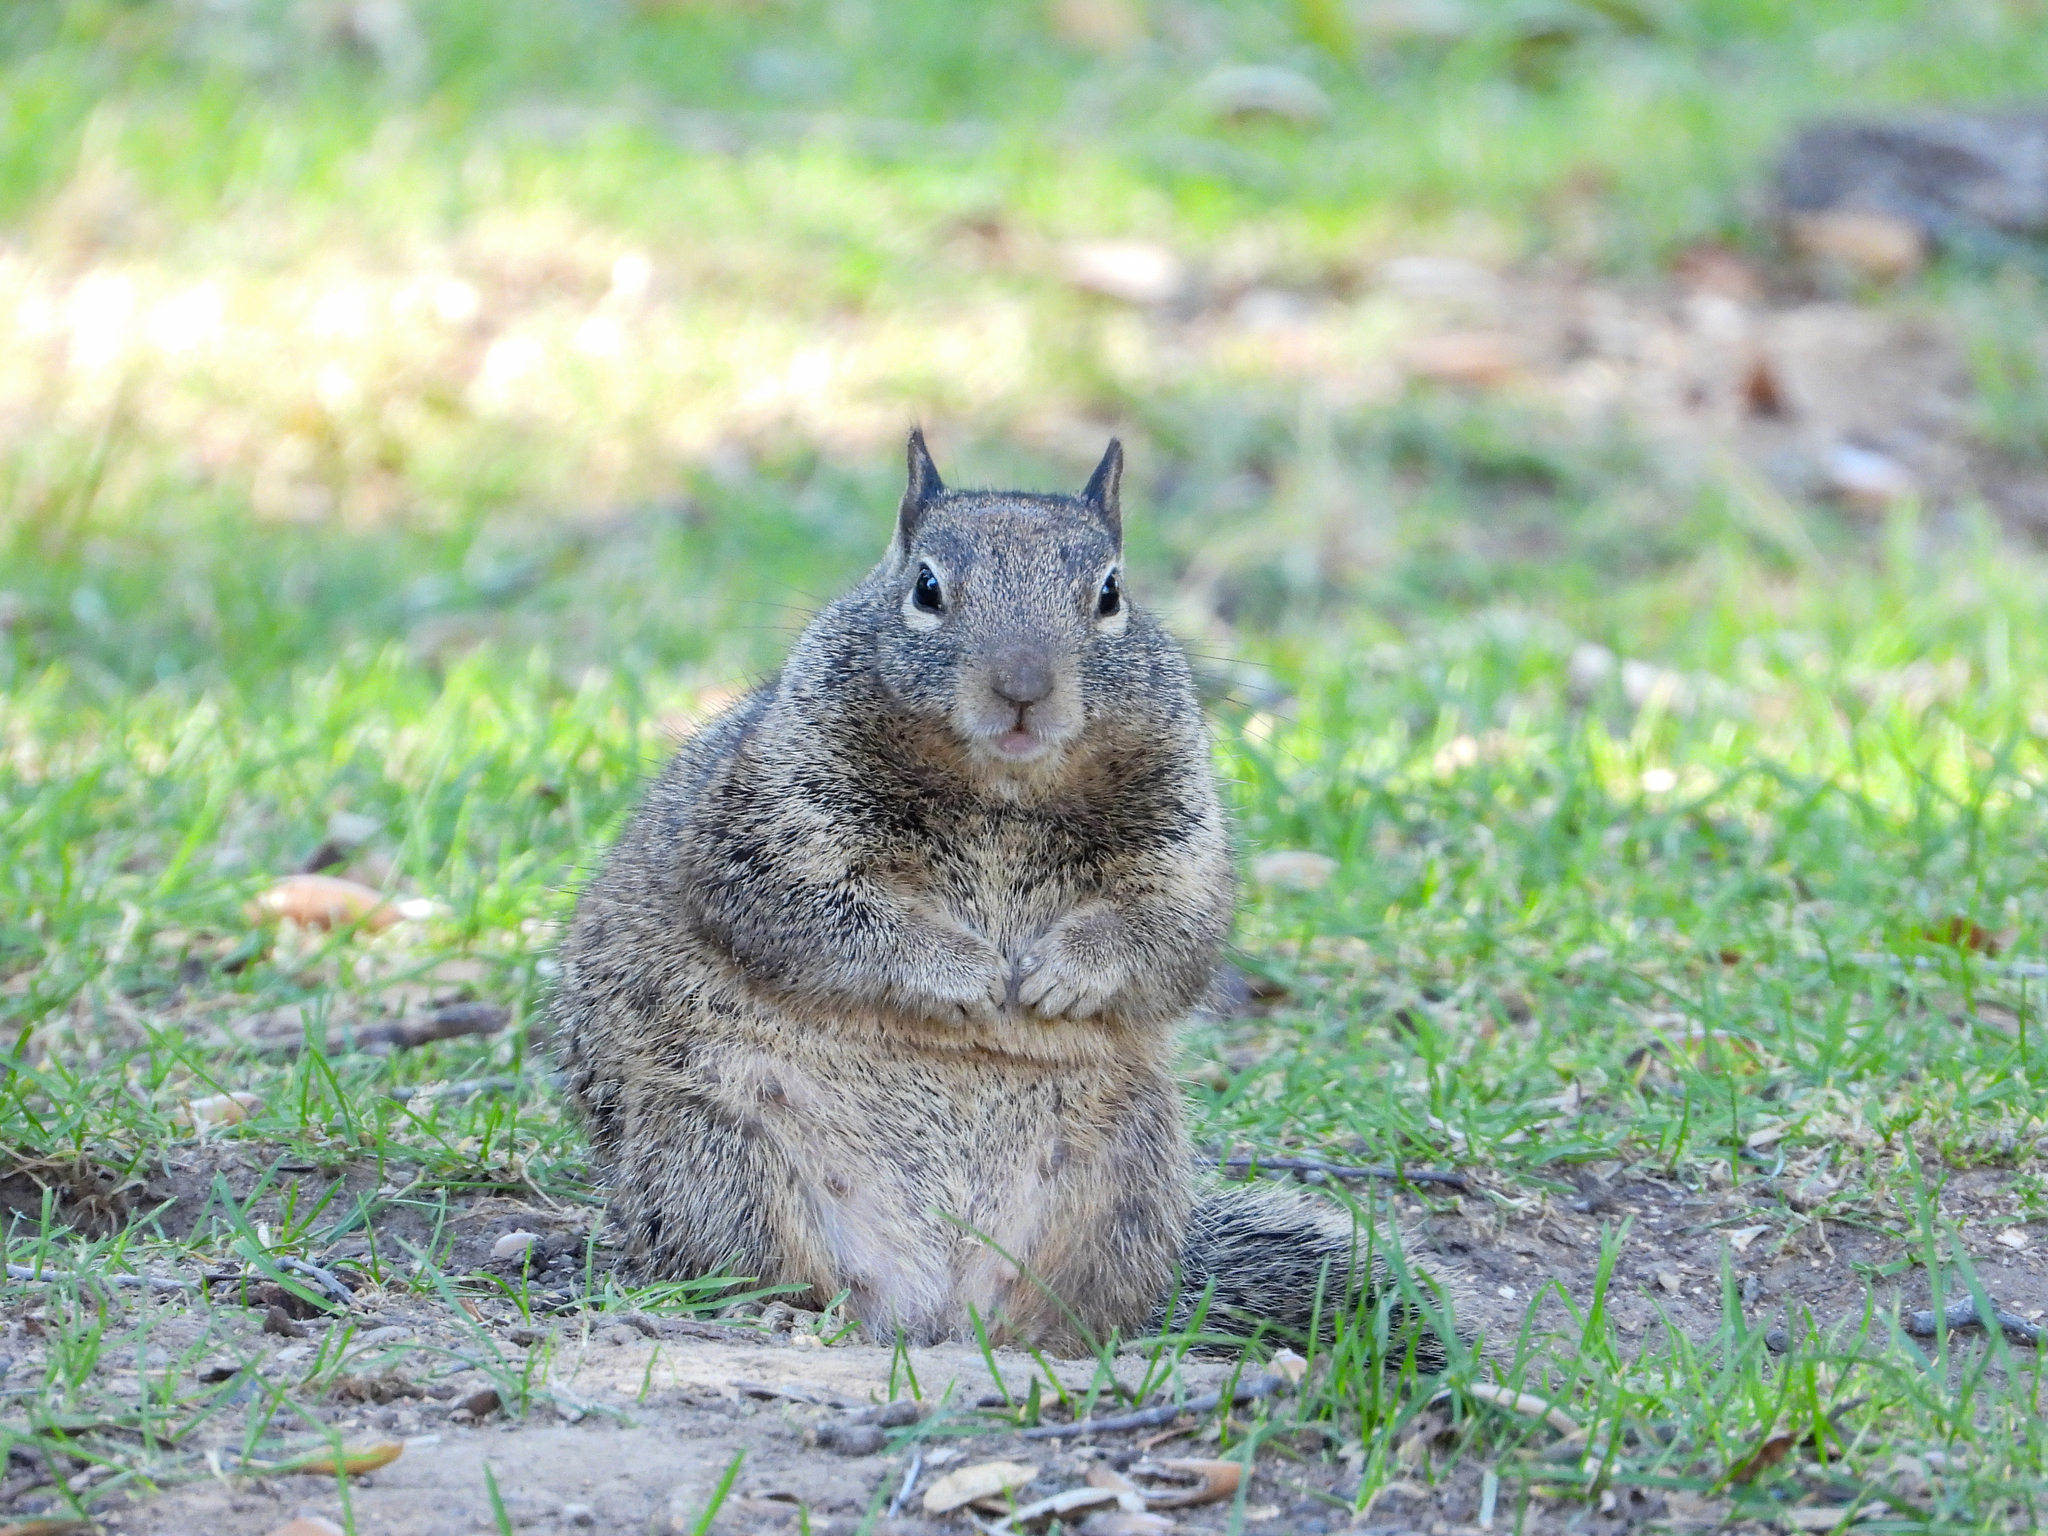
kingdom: Animalia
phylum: Chordata
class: Mammalia
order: Rodentia
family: Sciuridae
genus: Otospermophilus
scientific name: Otospermophilus beecheyi
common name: California ground squirrel
